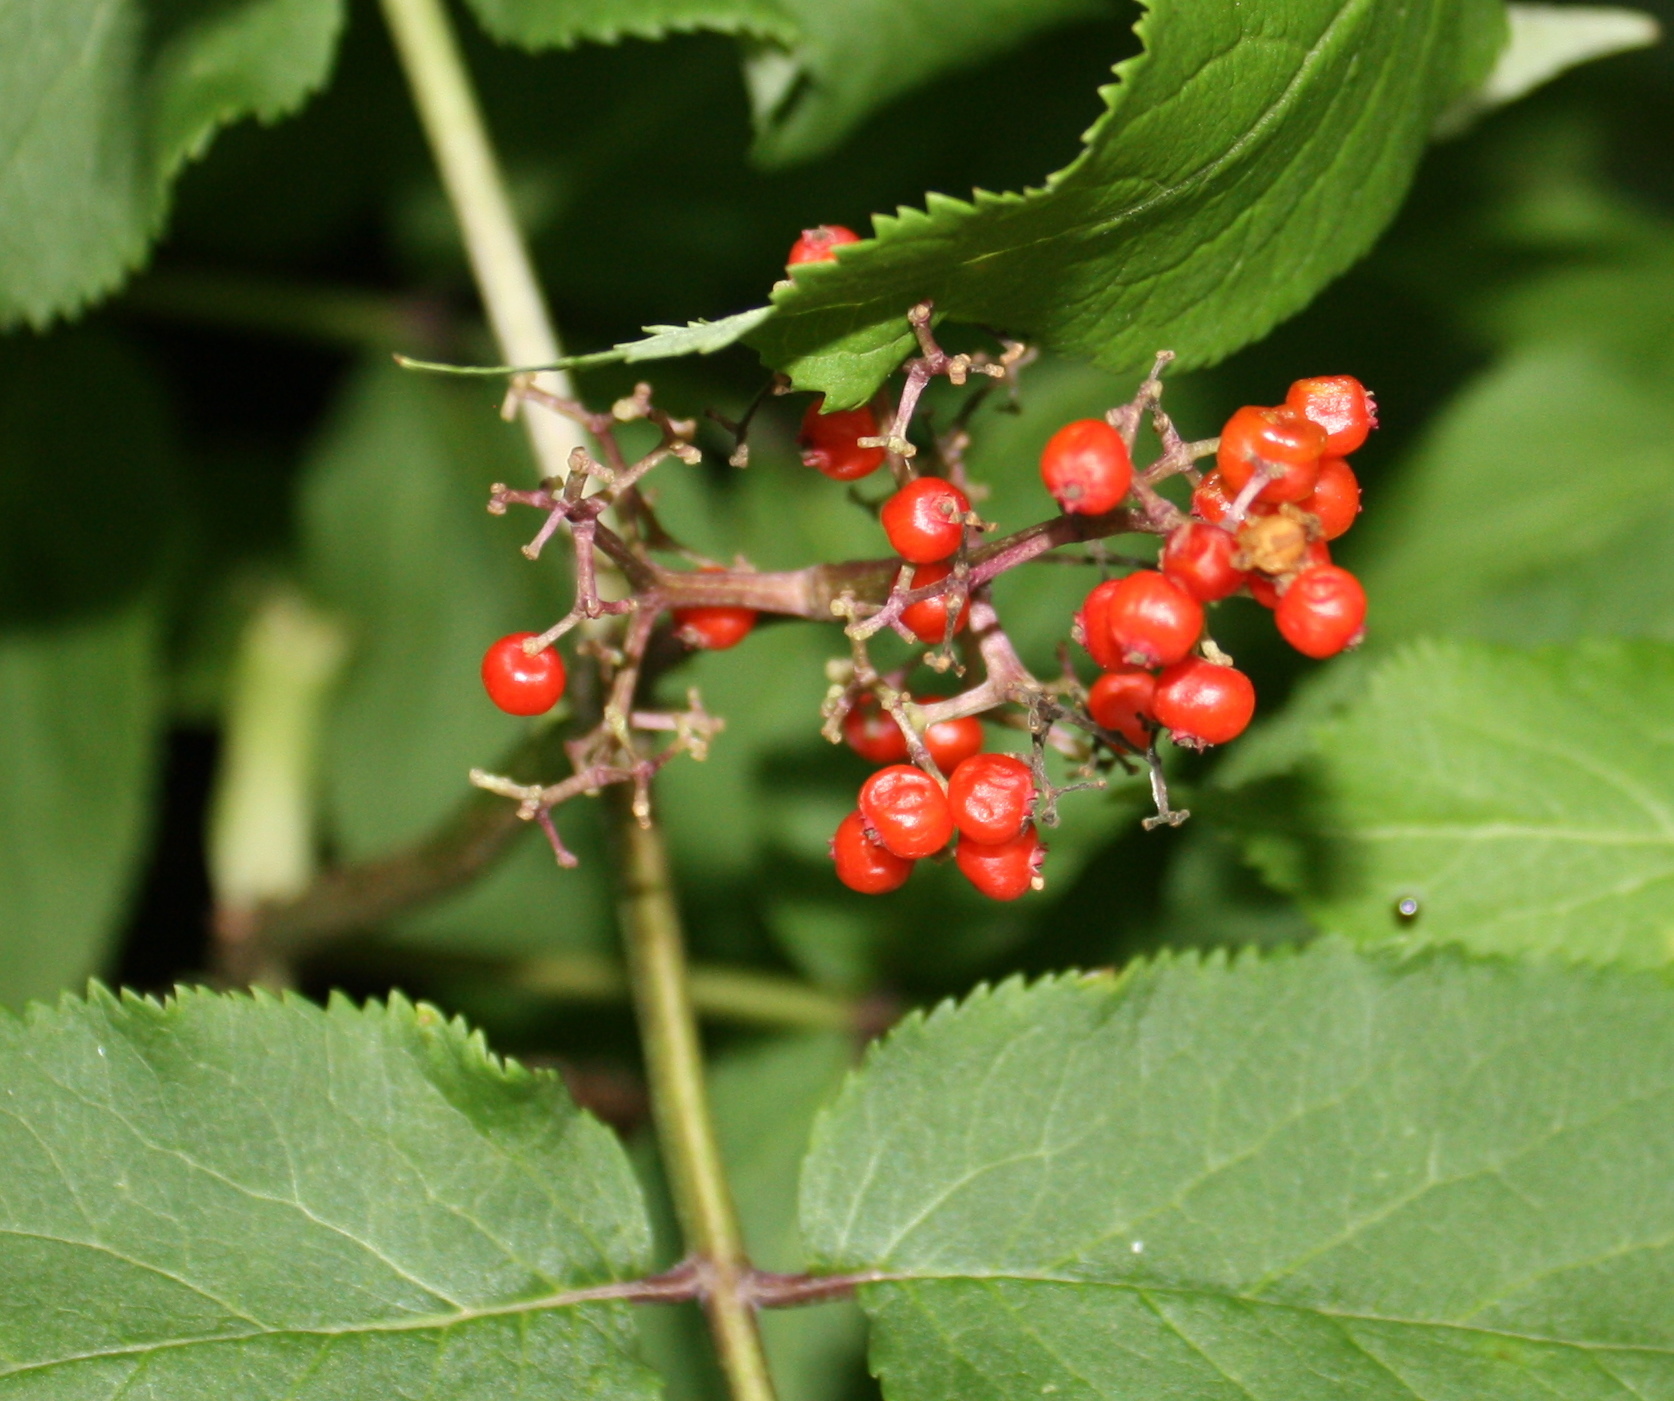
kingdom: Plantae
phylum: Tracheophyta
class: Magnoliopsida
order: Dipsacales
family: Viburnaceae
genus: Sambucus
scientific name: Sambucus racemosa
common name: Red-berried elder
